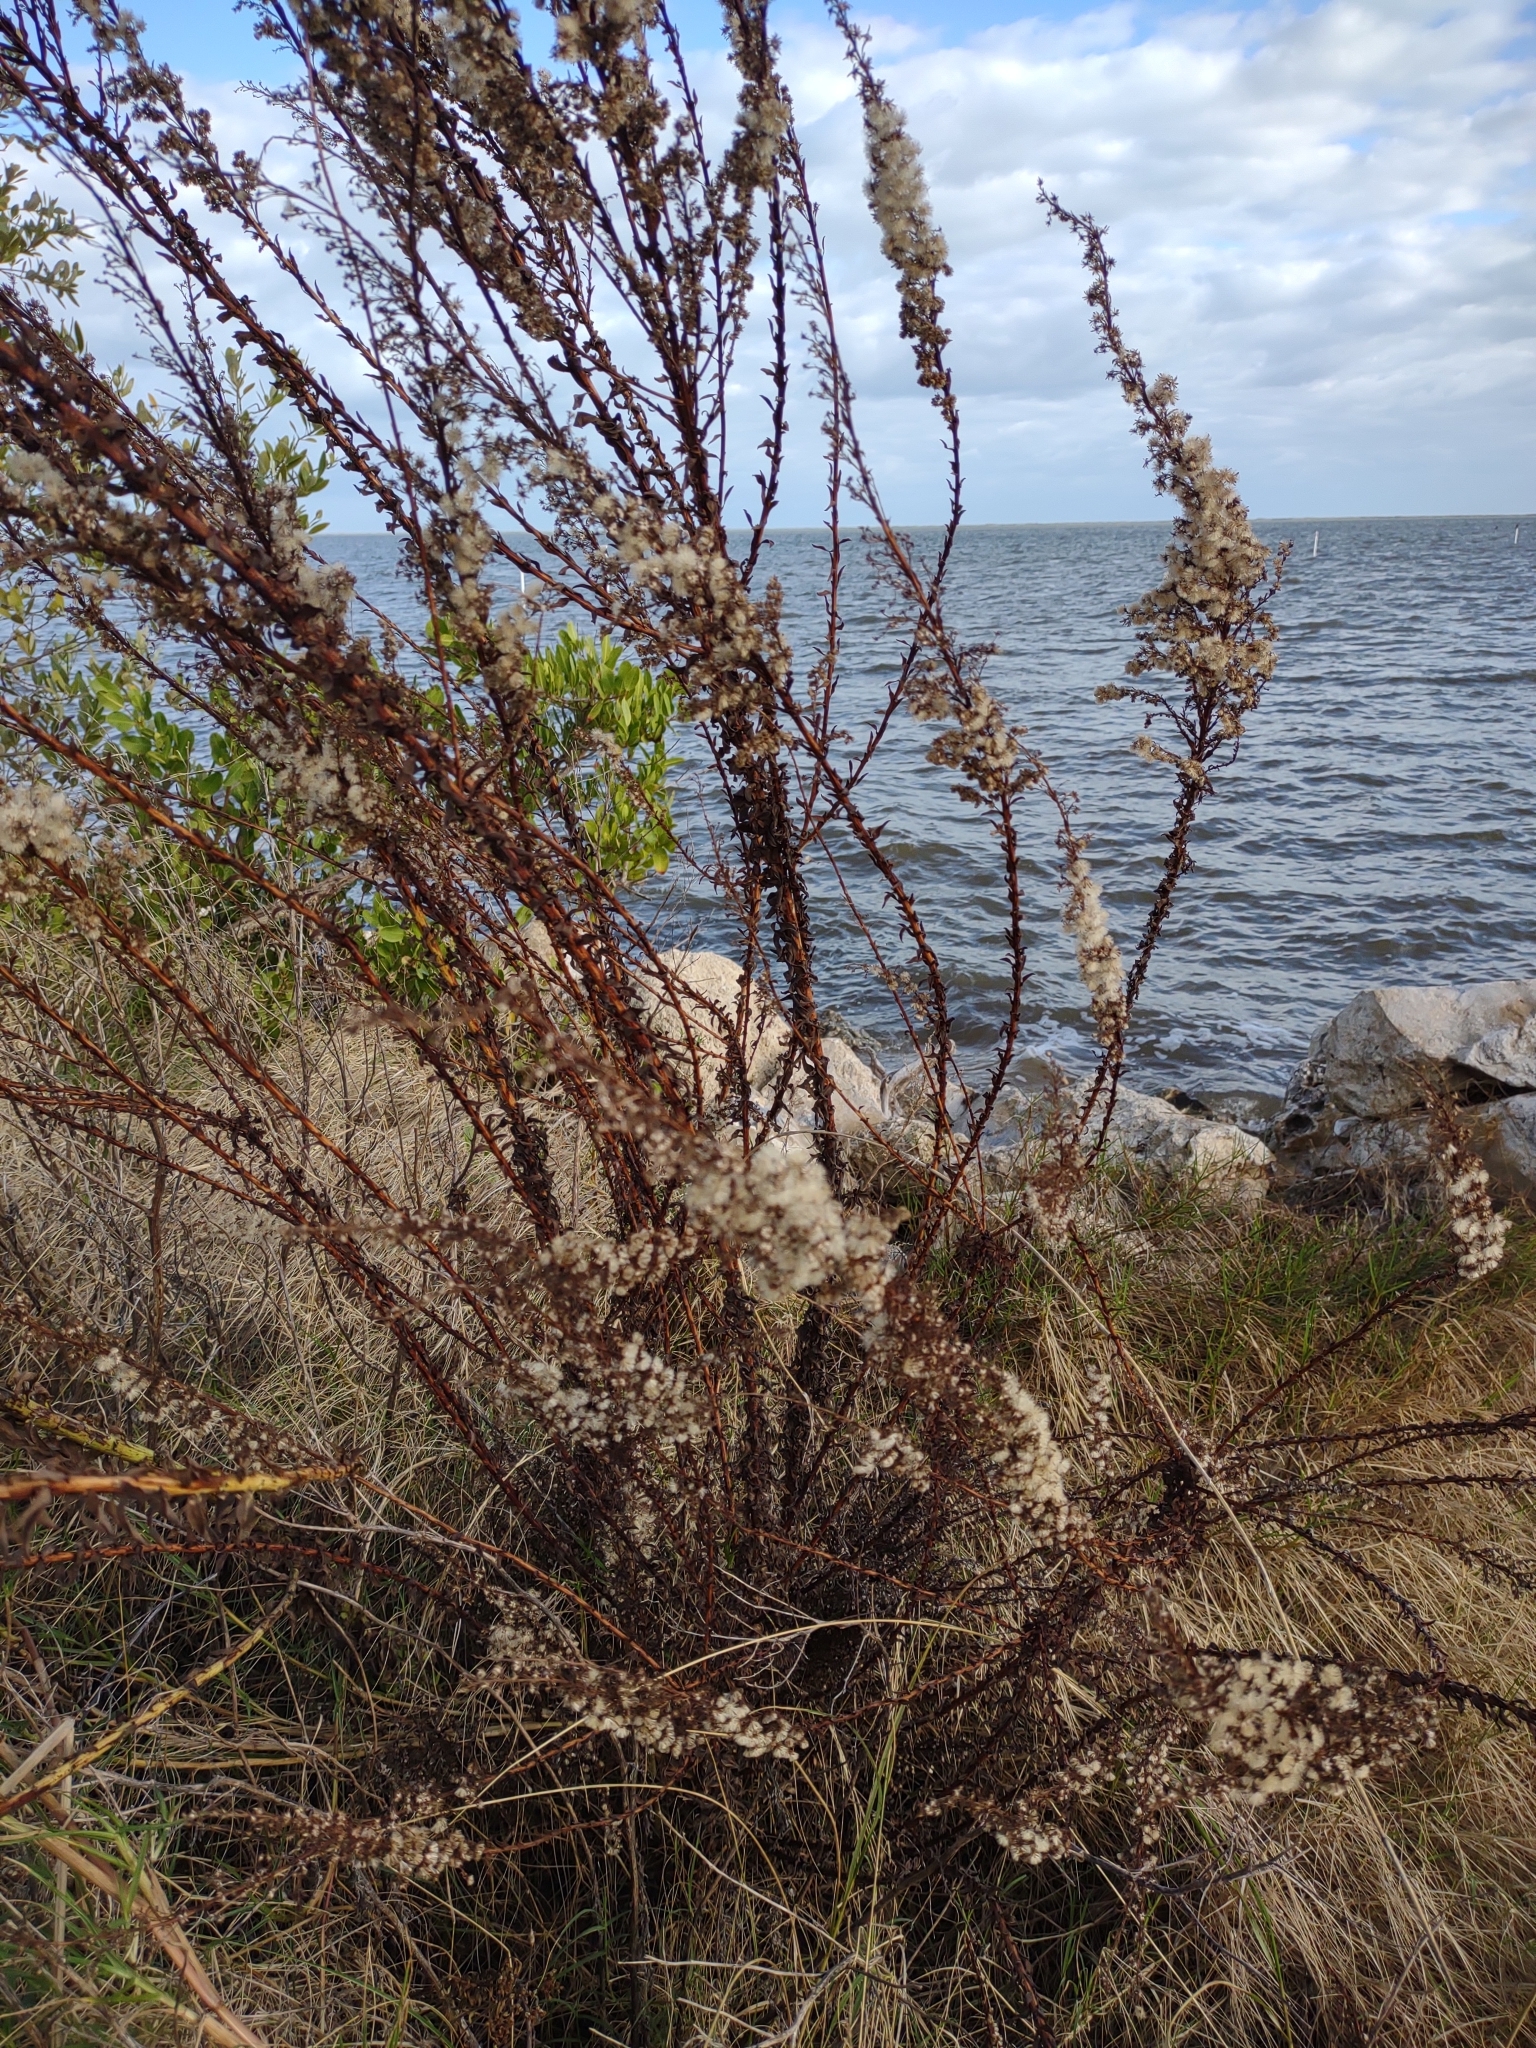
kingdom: Plantae
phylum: Tracheophyta
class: Magnoliopsida
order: Asterales
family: Asteraceae
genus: Solidago
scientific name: Solidago mexicana
